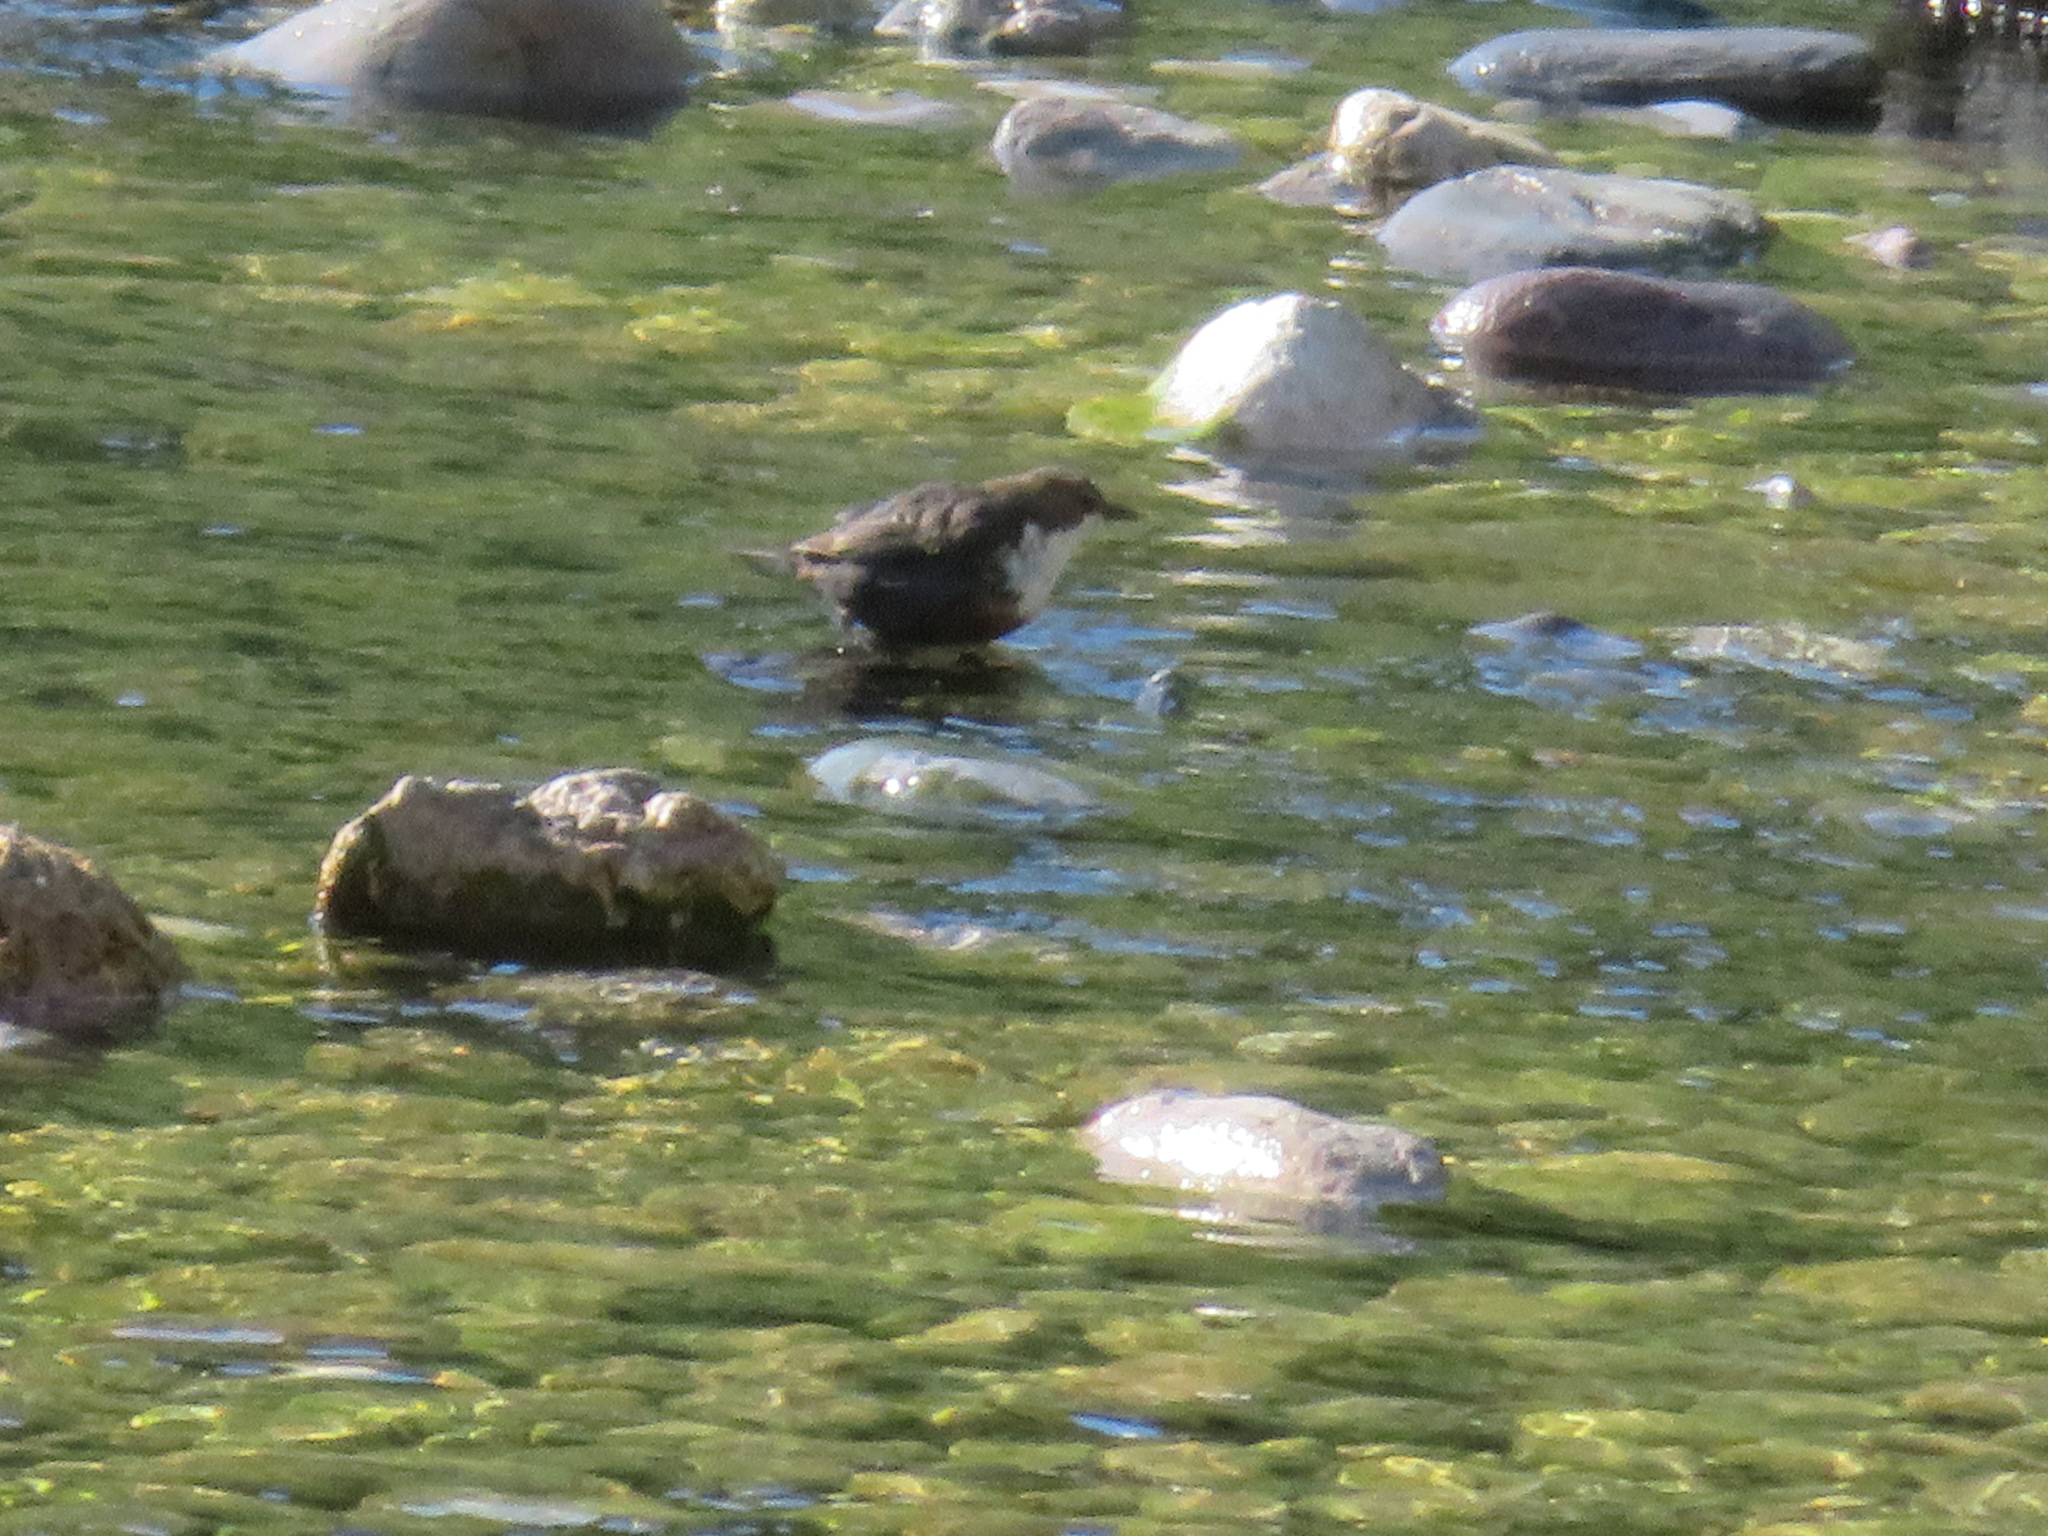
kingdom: Animalia
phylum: Chordata
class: Aves
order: Passeriformes
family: Cinclidae
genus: Cinclus
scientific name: Cinclus cinclus
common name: White-throated dipper
